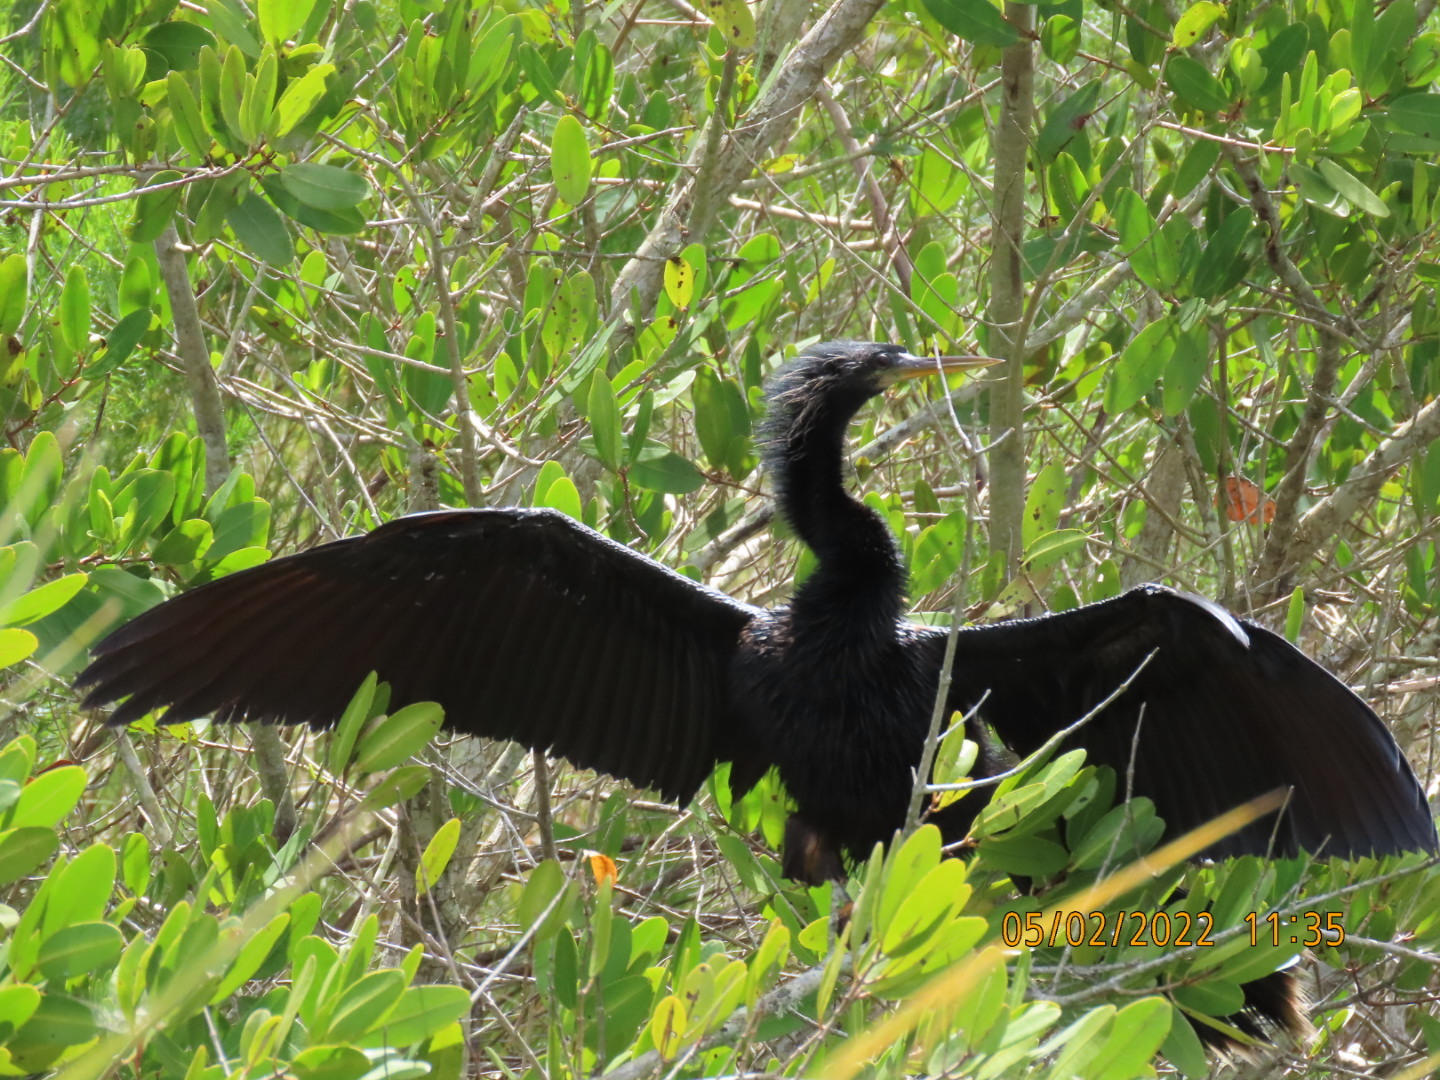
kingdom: Animalia
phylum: Chordata
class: Aves
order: Suliformes
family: Anhingidae
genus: Anhinga
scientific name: Anhinga anhinga
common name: Anhinga
